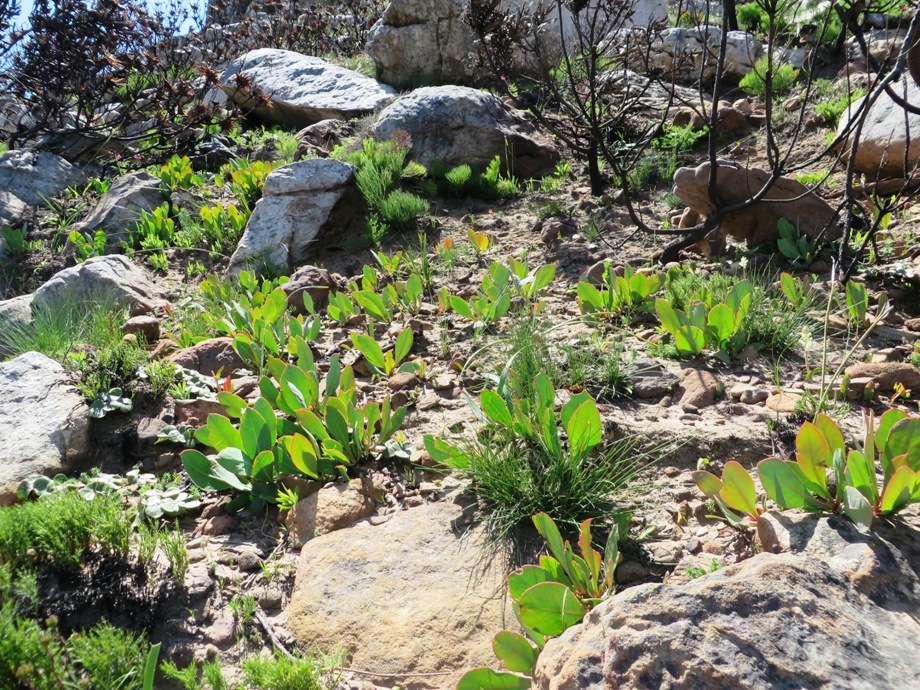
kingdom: Plantae
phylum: Tracheophyta
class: Magnoliopsida
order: Proteales
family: Proteaceae
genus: Protea
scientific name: Protea acaulos
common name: Common ground sugarbush
